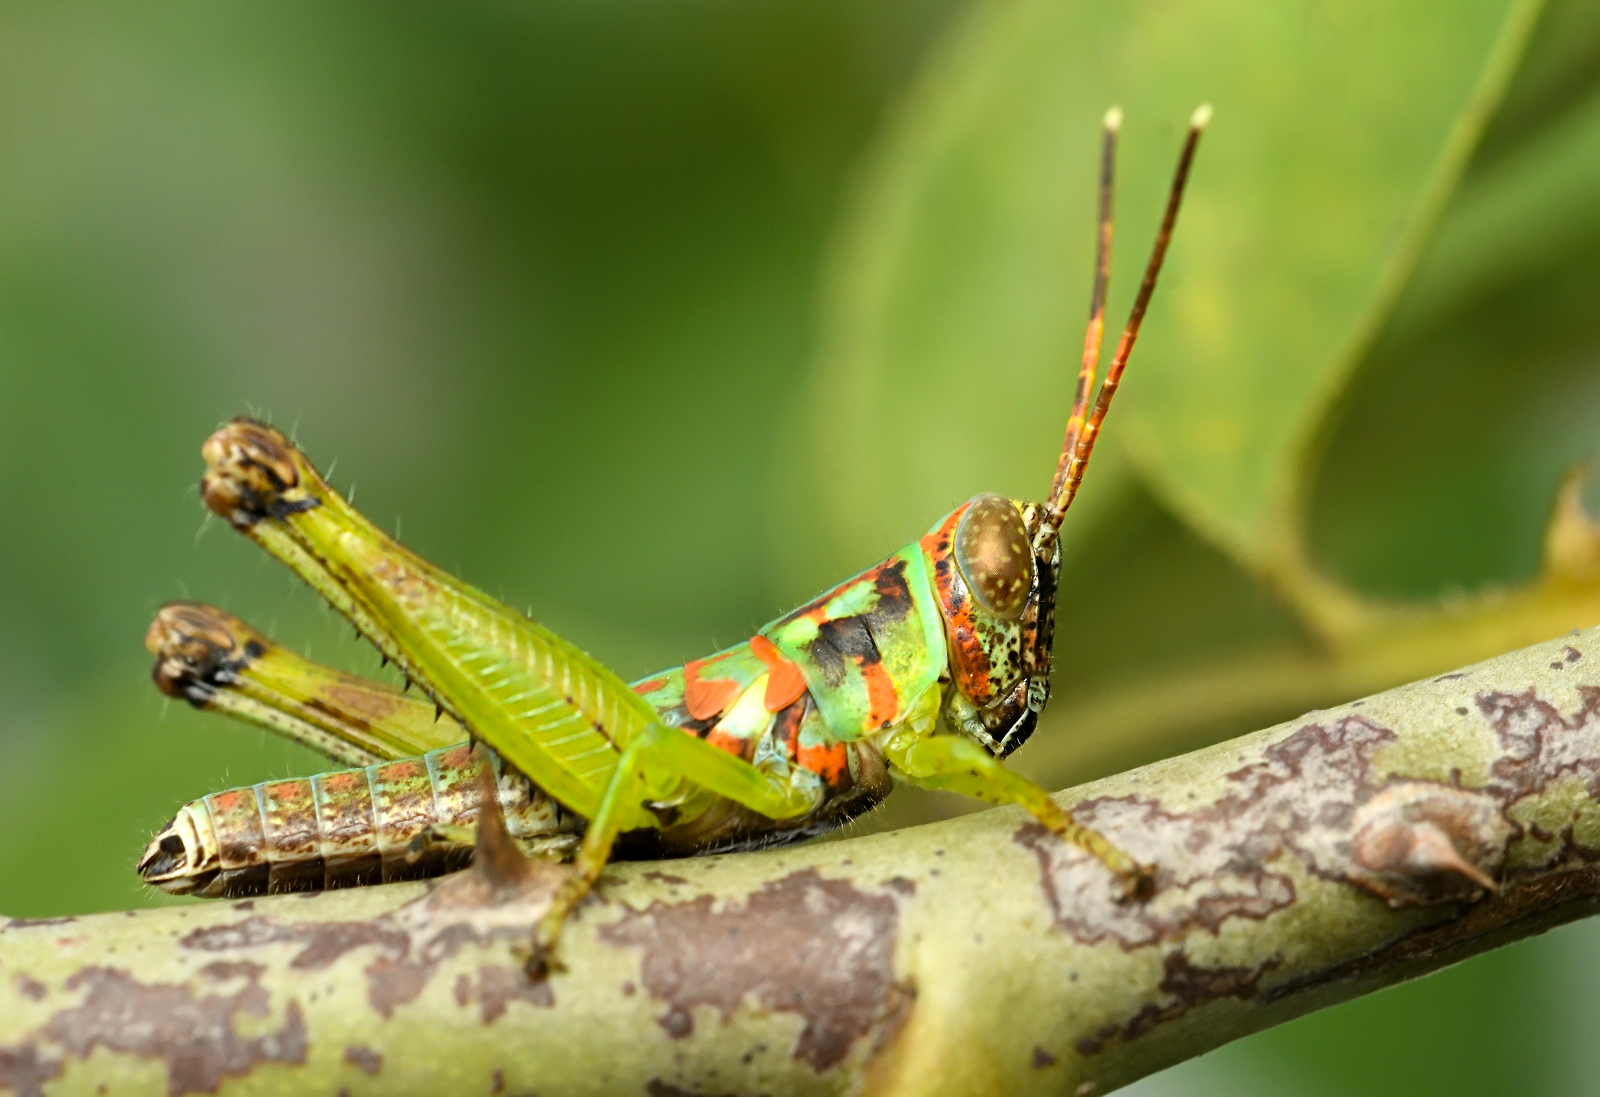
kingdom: Animalia
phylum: Arthropoda
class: Insecta
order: Orthoptera
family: Acrididae
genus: Pirithoicus
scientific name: Pirithoicus ophthalmicus
